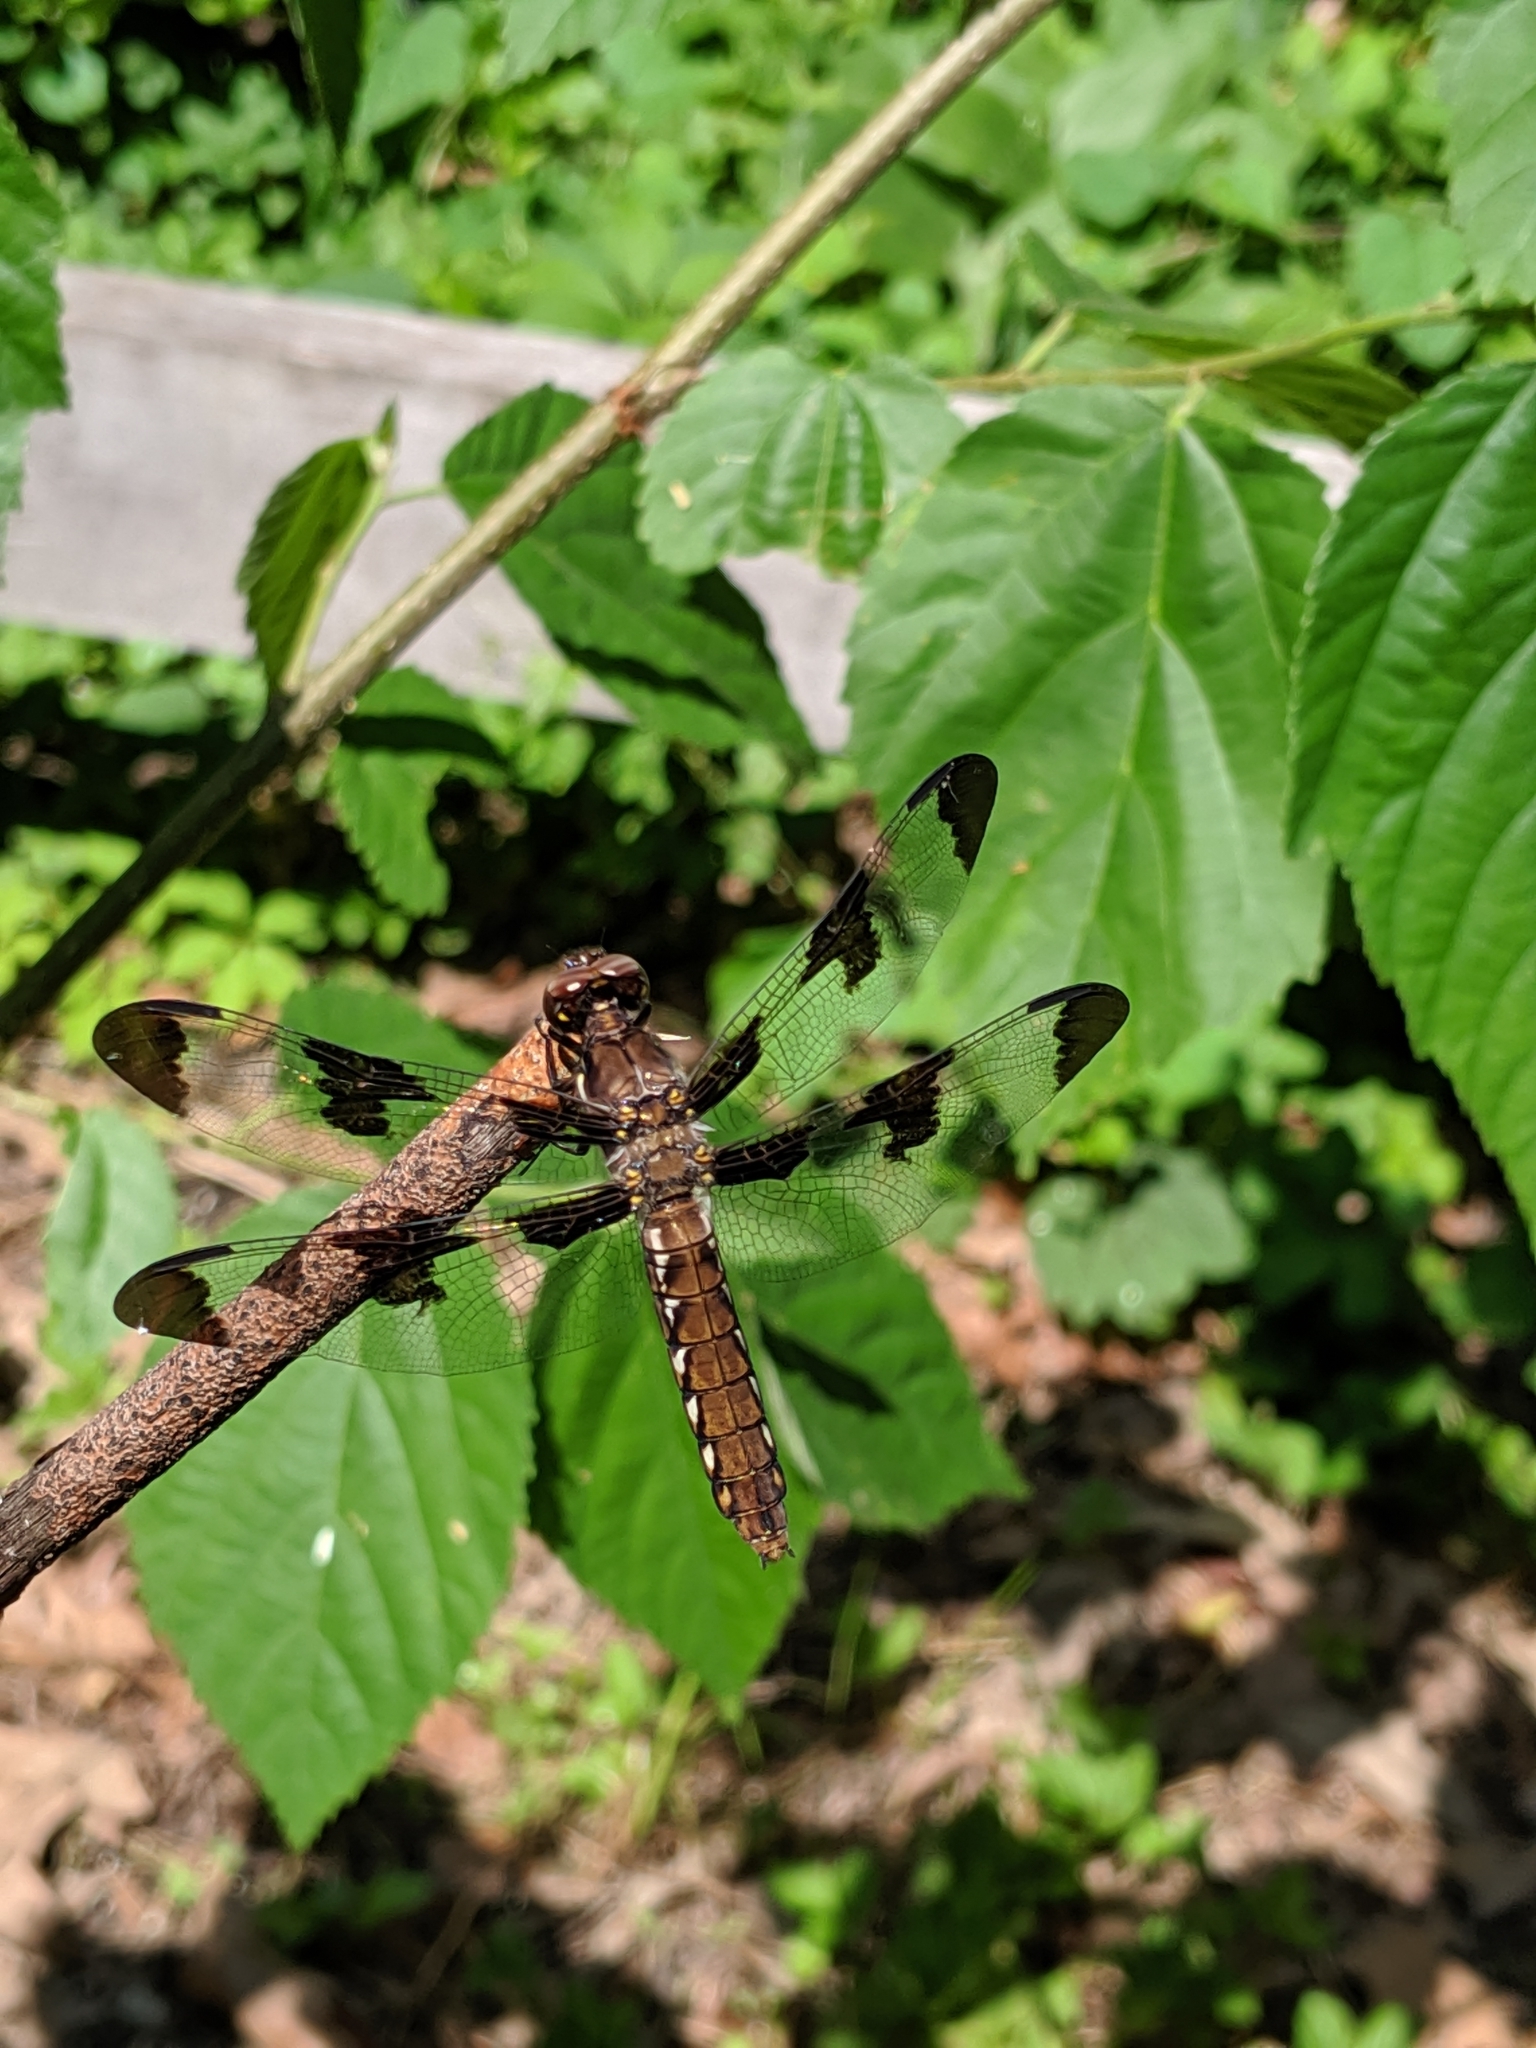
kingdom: Animalia
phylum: Arthropoda
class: Insecta
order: Odonata
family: Libellulidae
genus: Plathemis
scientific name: Plathemis lydia
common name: Common whitetail
